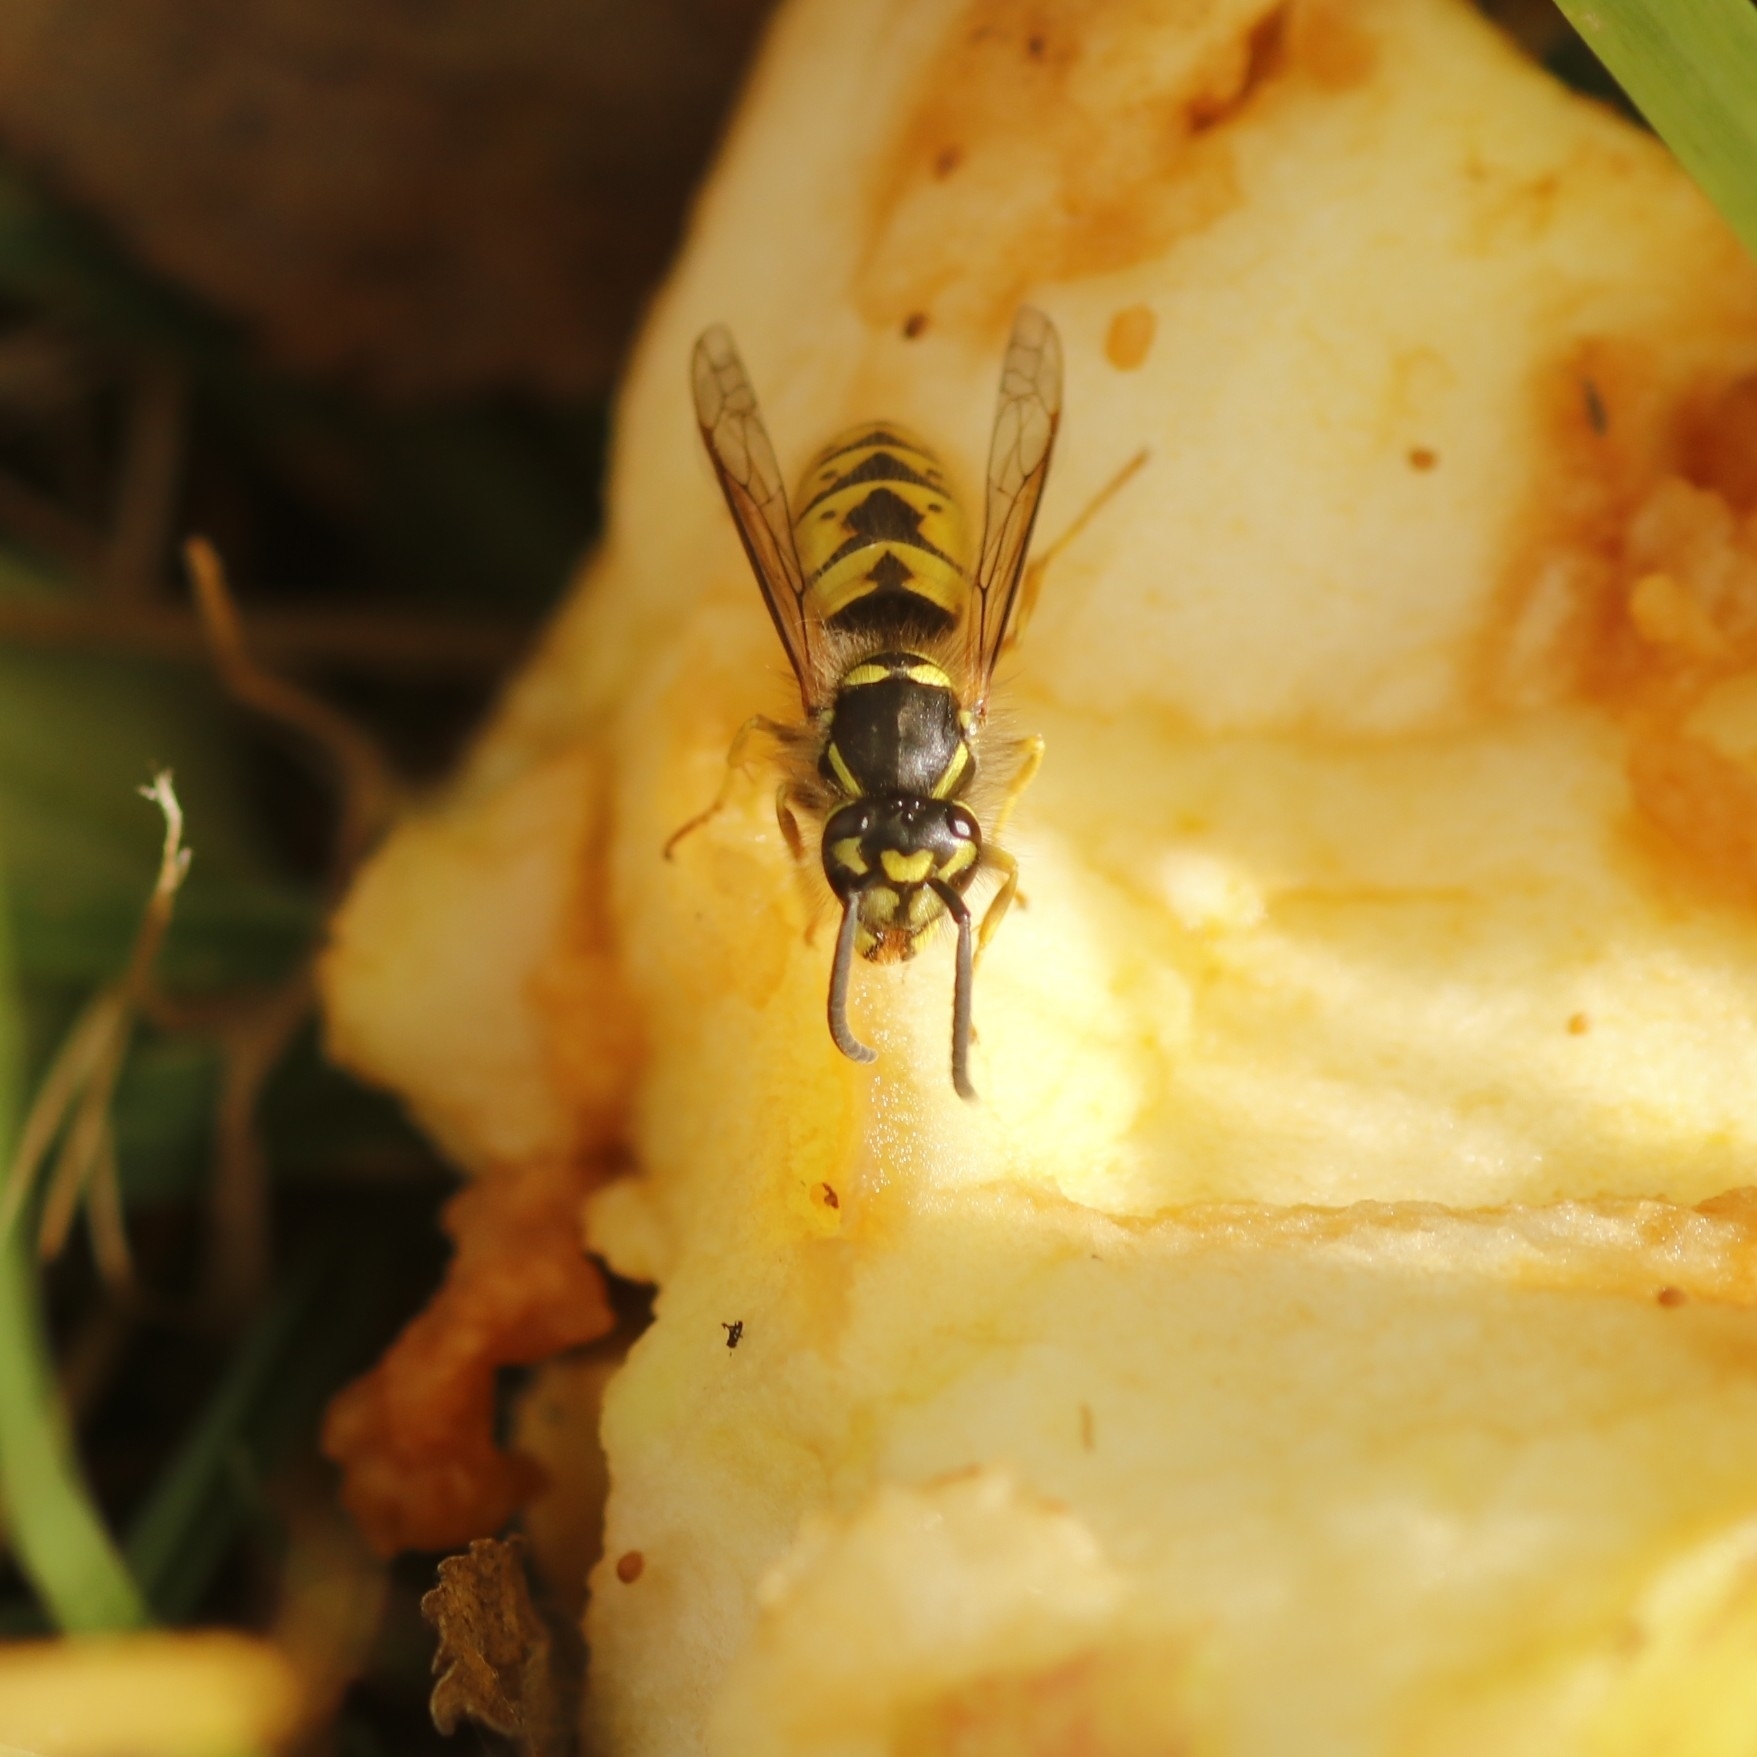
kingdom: Animalia
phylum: Arthropoda
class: Insecta
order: Hymenoptera
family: Vespidae
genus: Vespula
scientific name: Vespula vulgaris
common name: Common wasp
